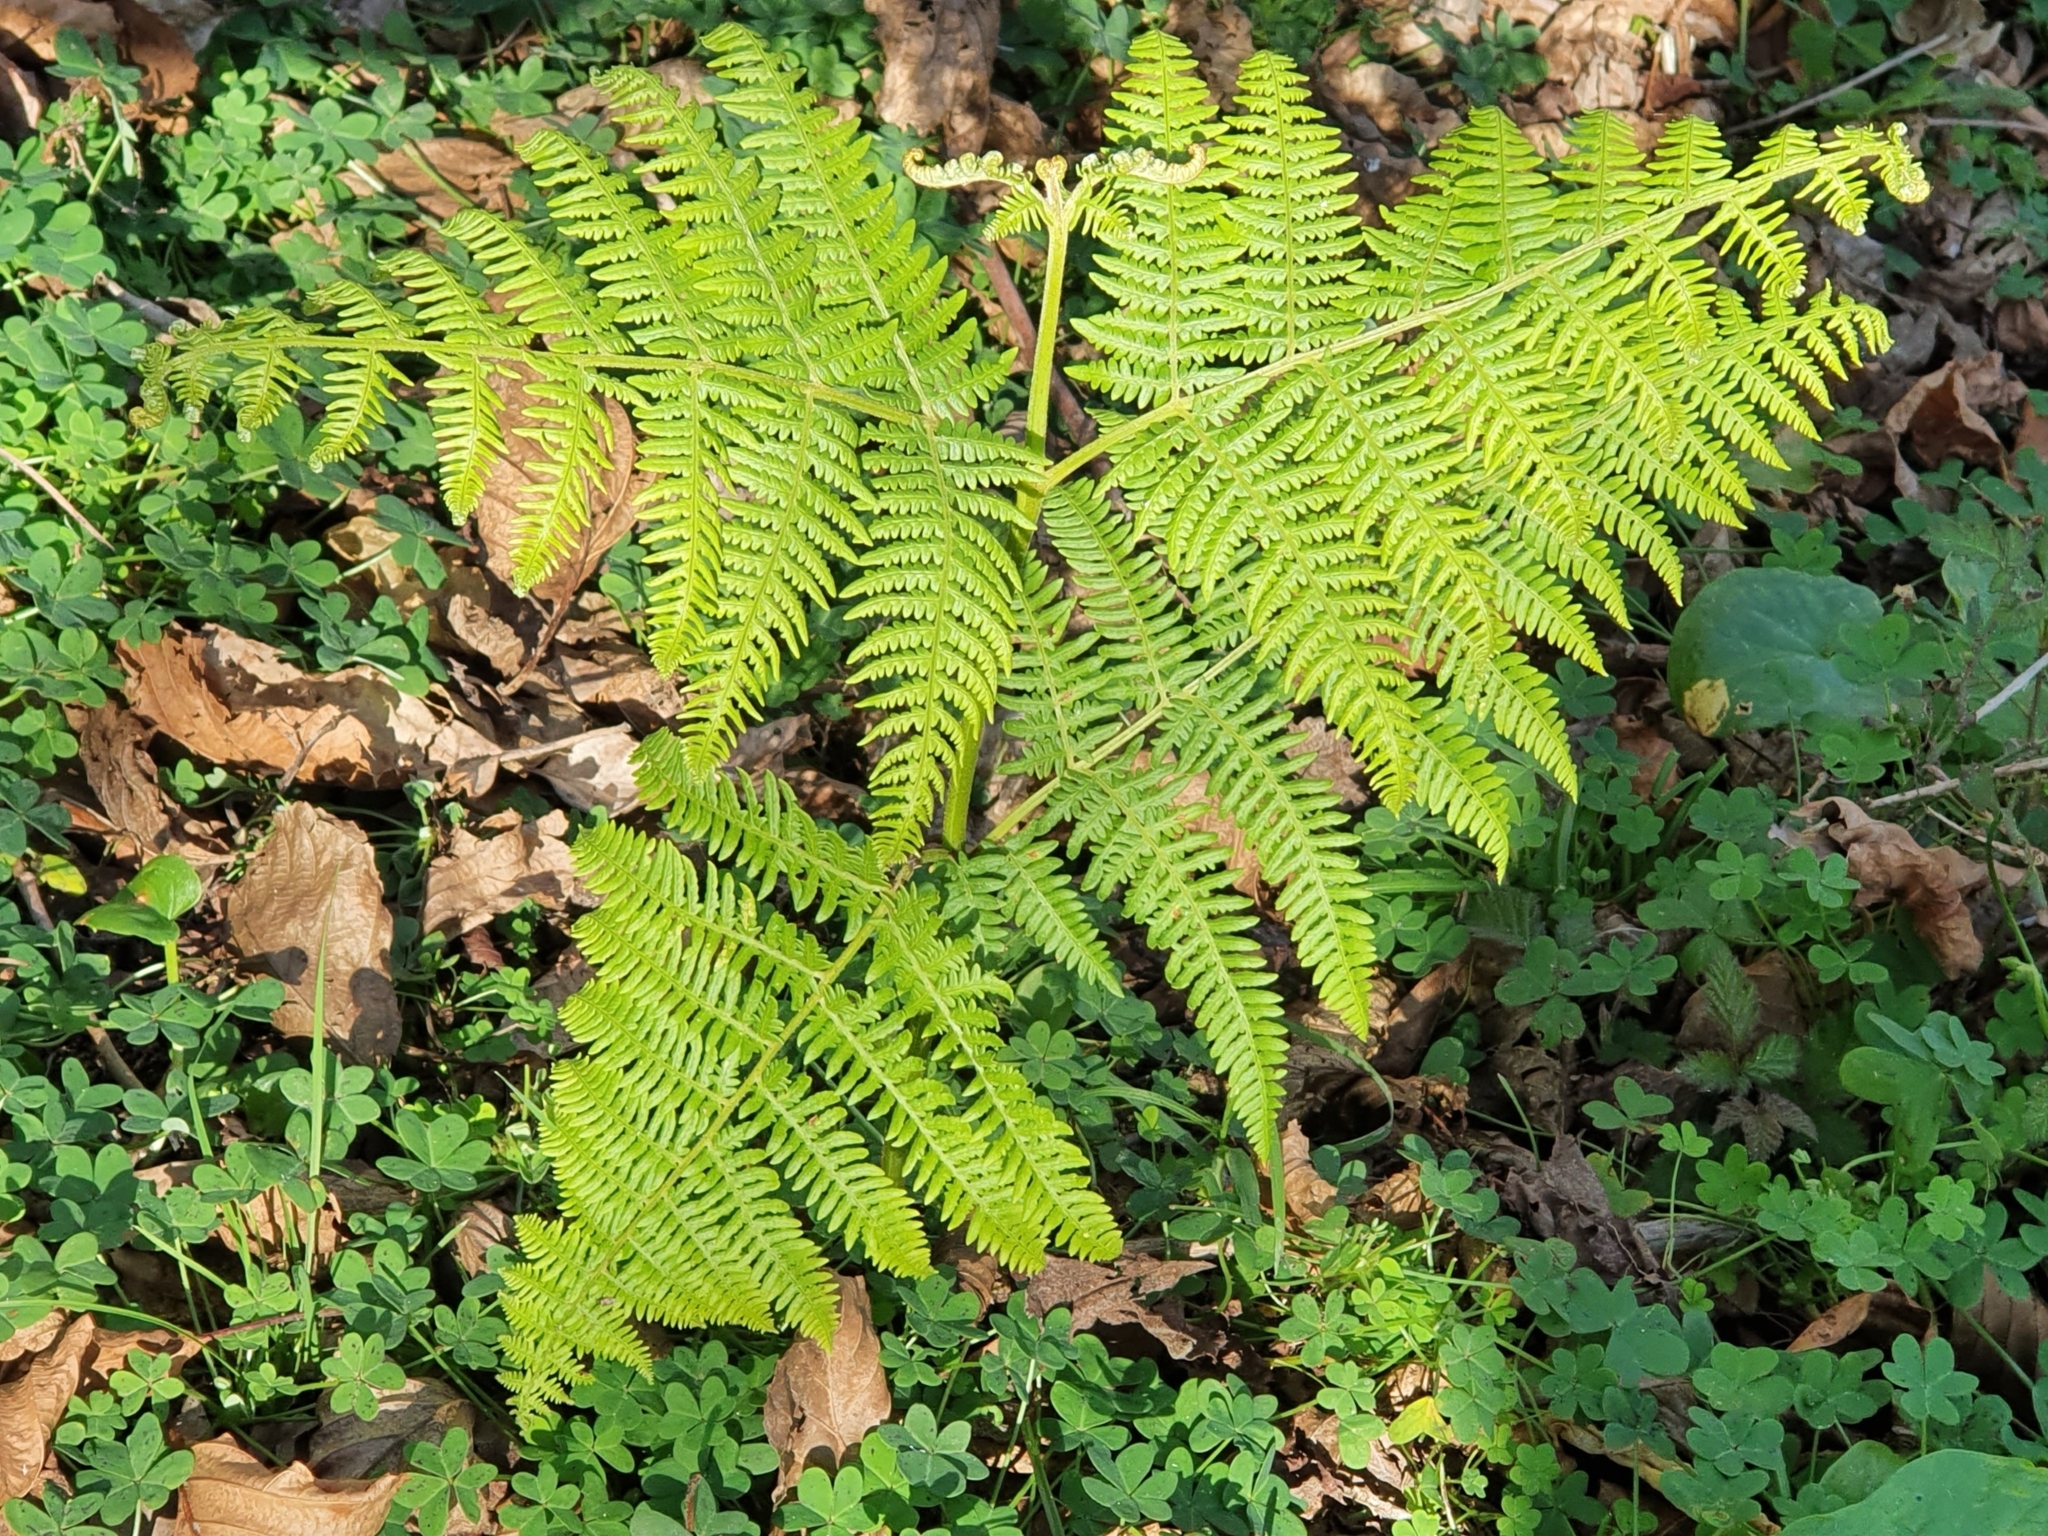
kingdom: Plantae
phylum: Tracheophyta
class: Polypodiopsida
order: Polypodiales
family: Dennstaedtiaceae
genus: Pteridium
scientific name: Pteridium aquilinum
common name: Bracken
